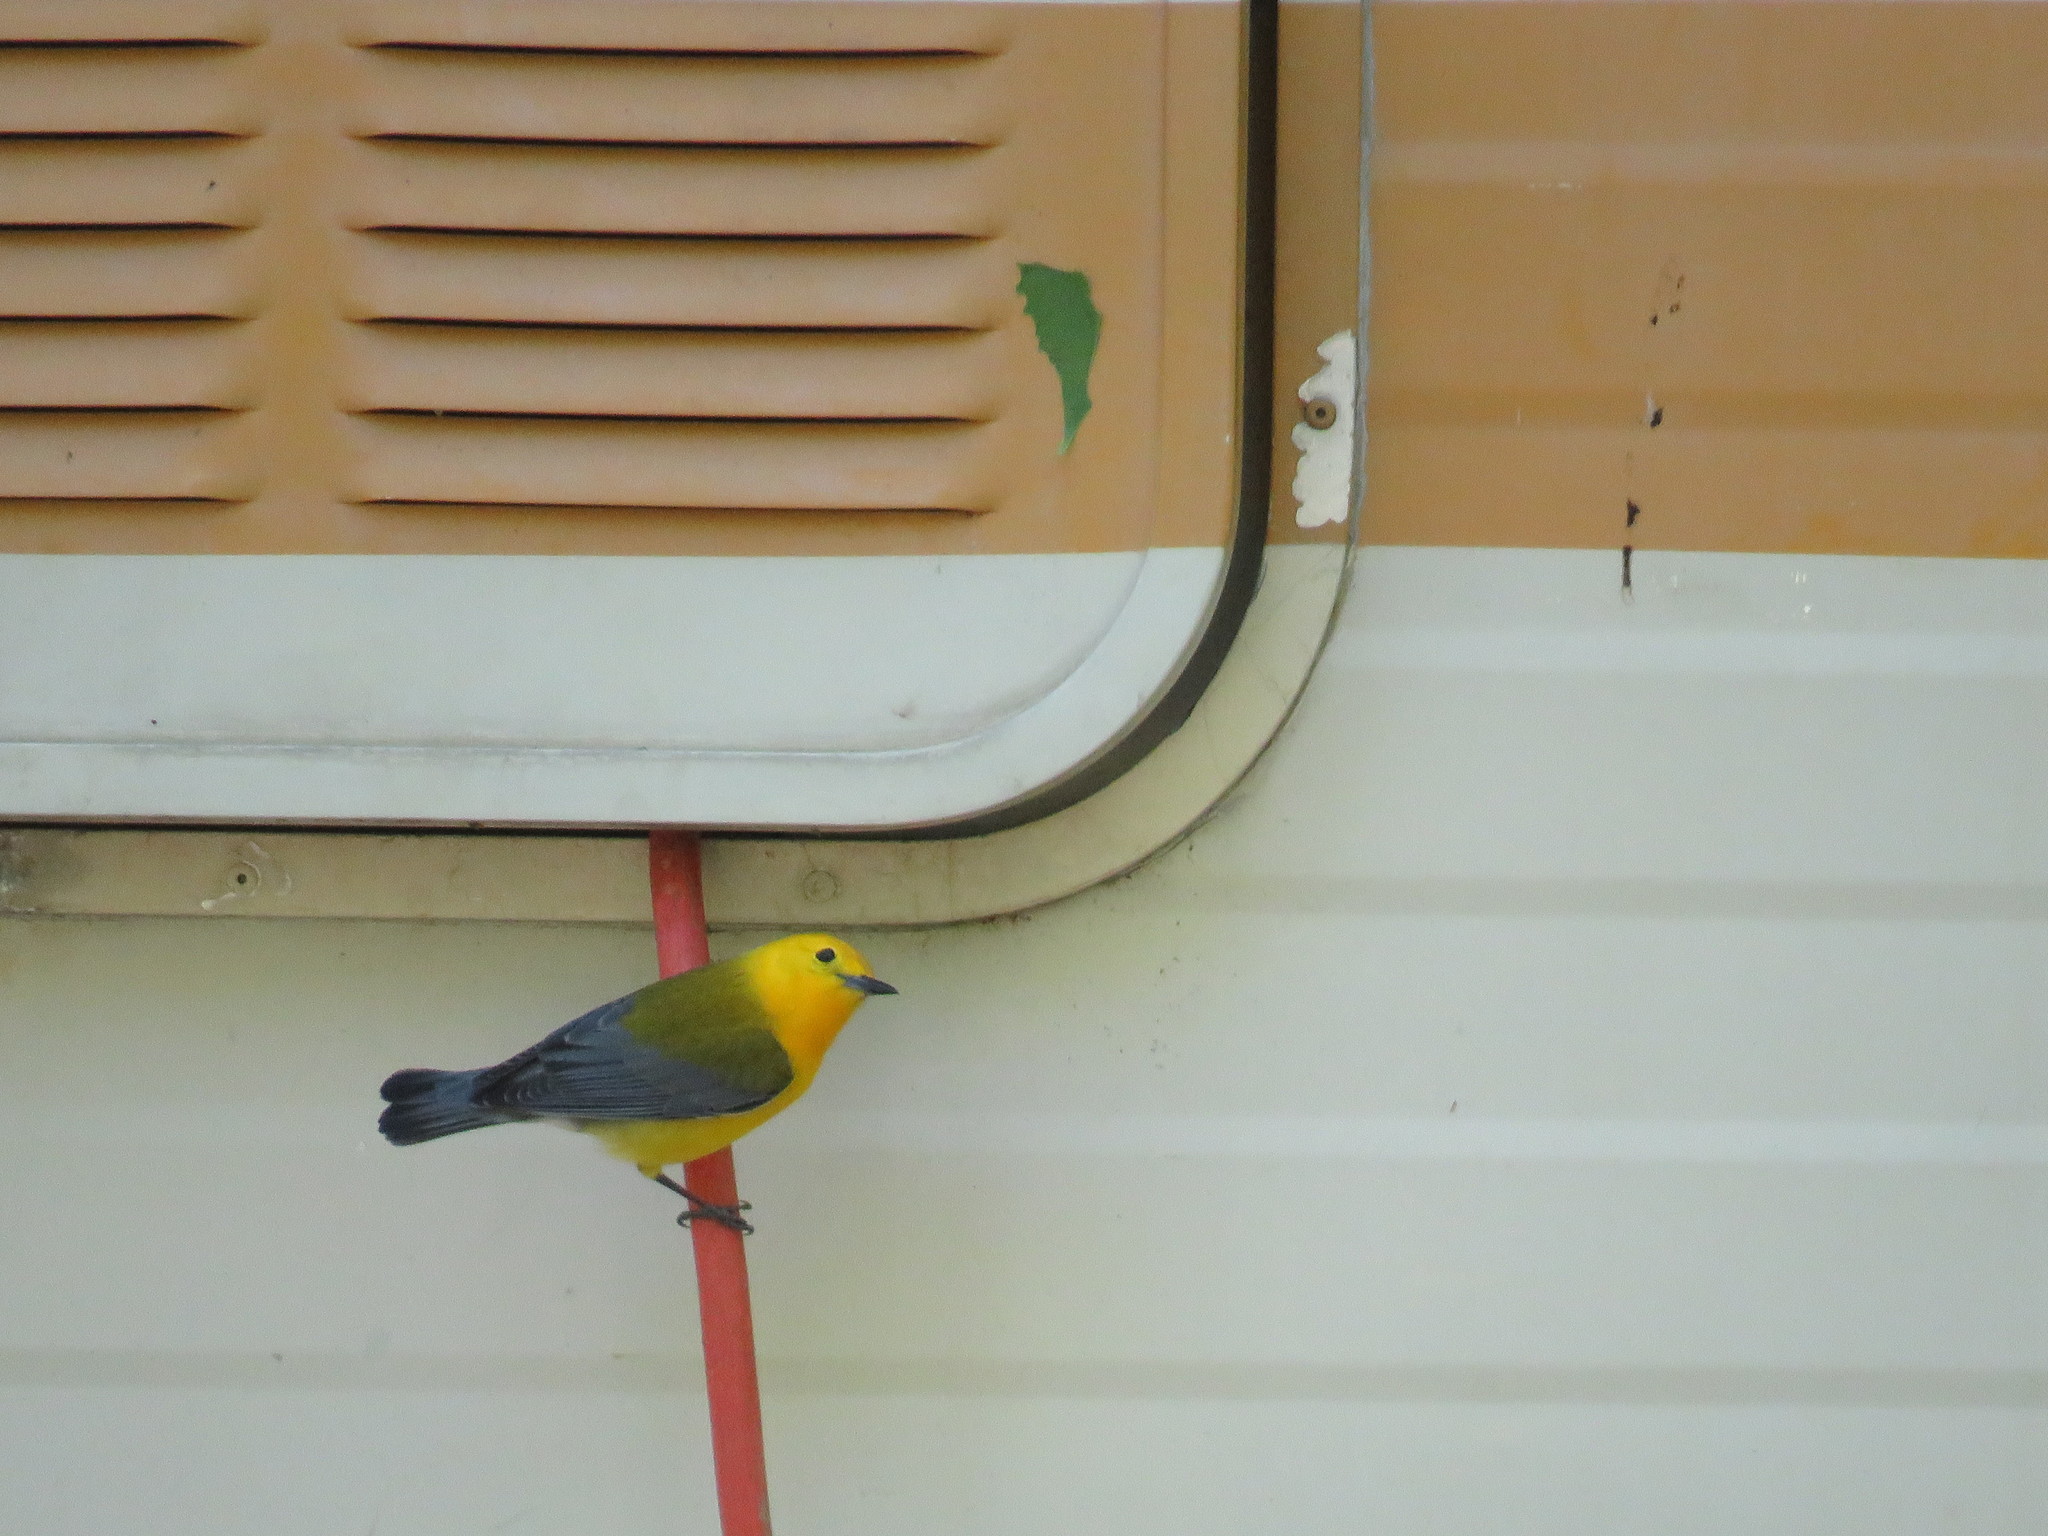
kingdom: Animalia
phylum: Chordata
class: Aves
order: Passeriformes
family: Parulidae
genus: Protonotaria
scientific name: Protonotaria citrea
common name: Prothonotary warbler
